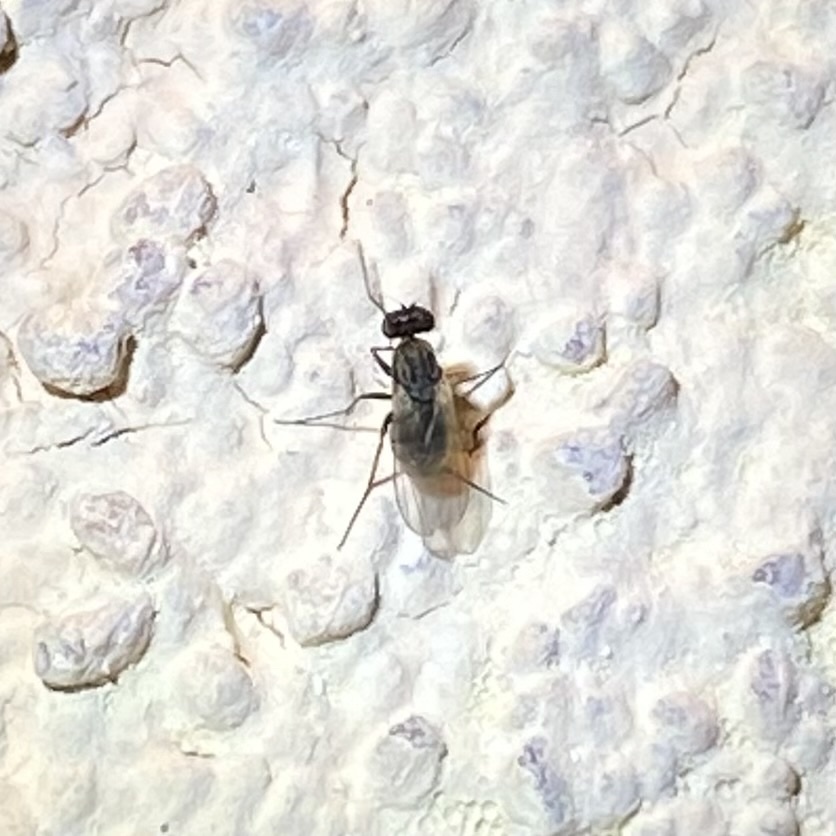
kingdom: Animalia
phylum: Arthropoda
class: Insecta
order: Diptera
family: Dolichopodidae
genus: Medetera
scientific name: Medetera
